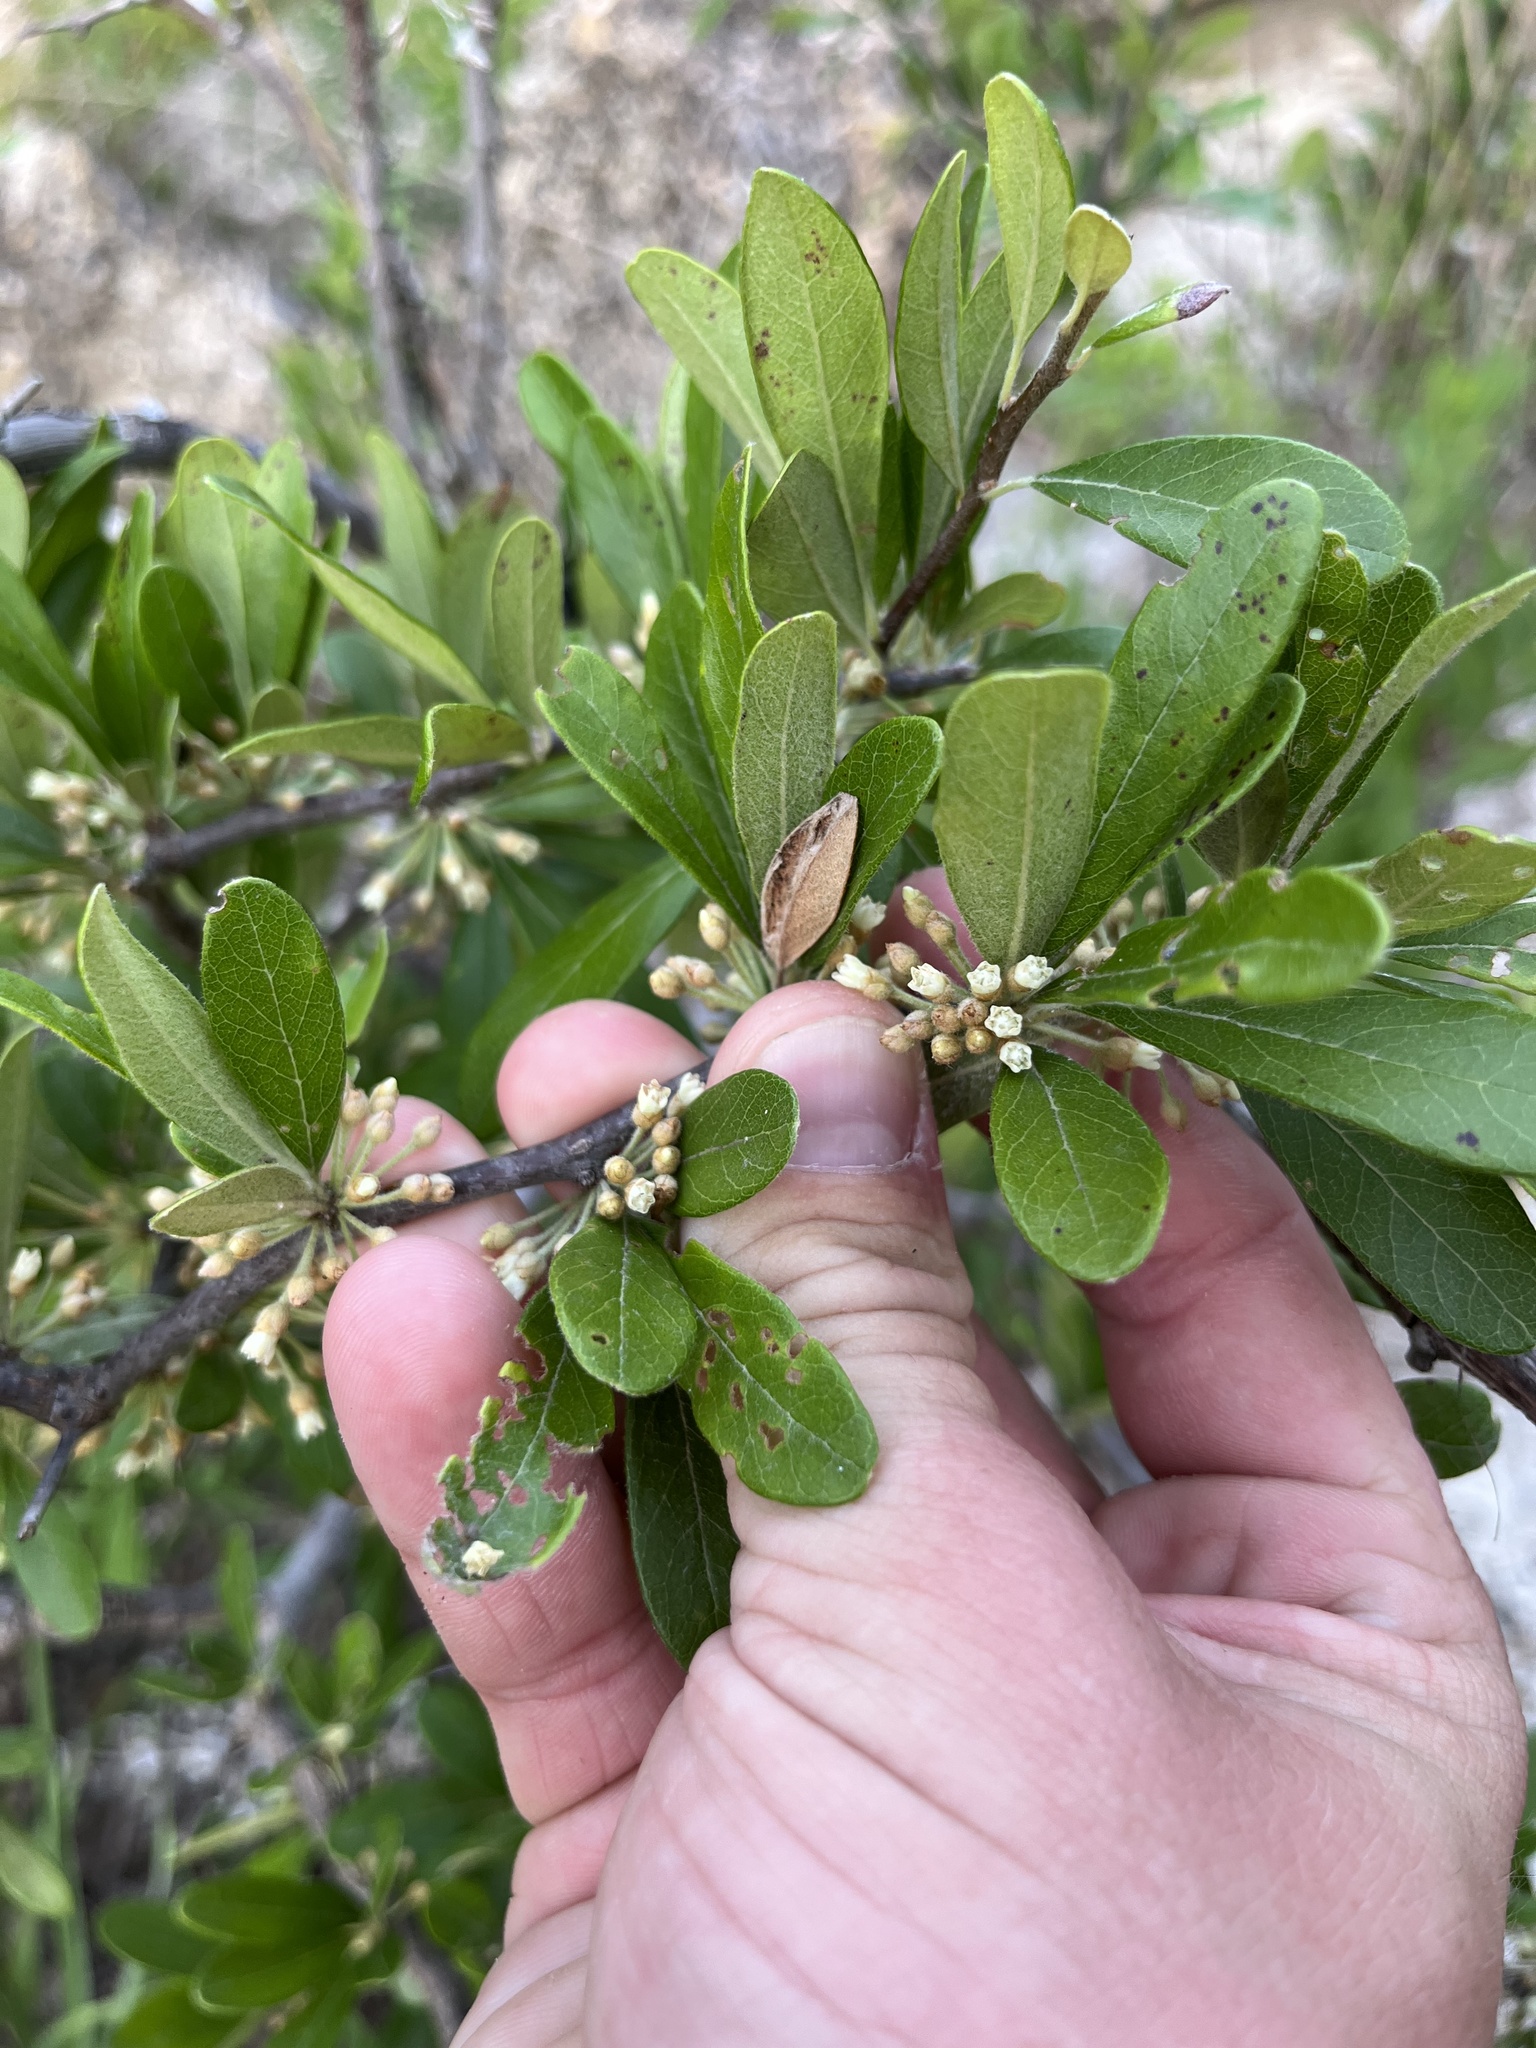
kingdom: Plantae
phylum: Tracheophyta
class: Magnoliopsida
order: Ericales
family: Sapotaceae
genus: Sideroxylon
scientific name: Sideroxylon lanuginosum
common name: Chittamwood
